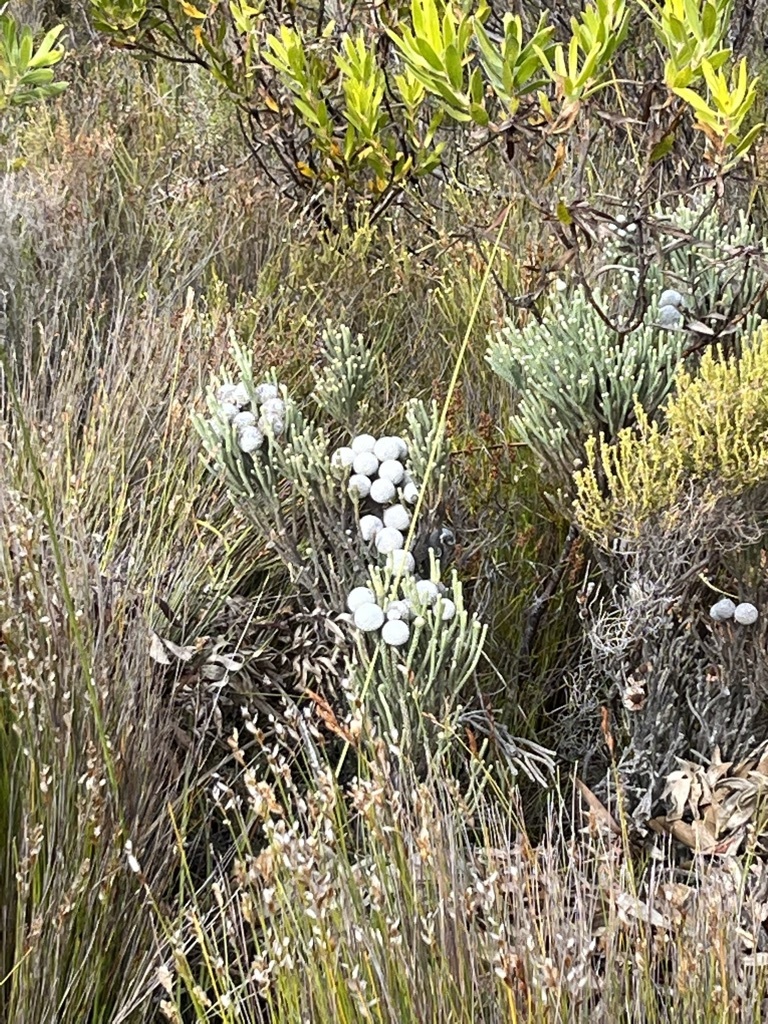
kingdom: Plantae
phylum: Tracheophyta
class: Magnoliopsida
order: Bruniales
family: Bruniaceae
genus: Brunia
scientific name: Brunia laevis
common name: Silver brunia
